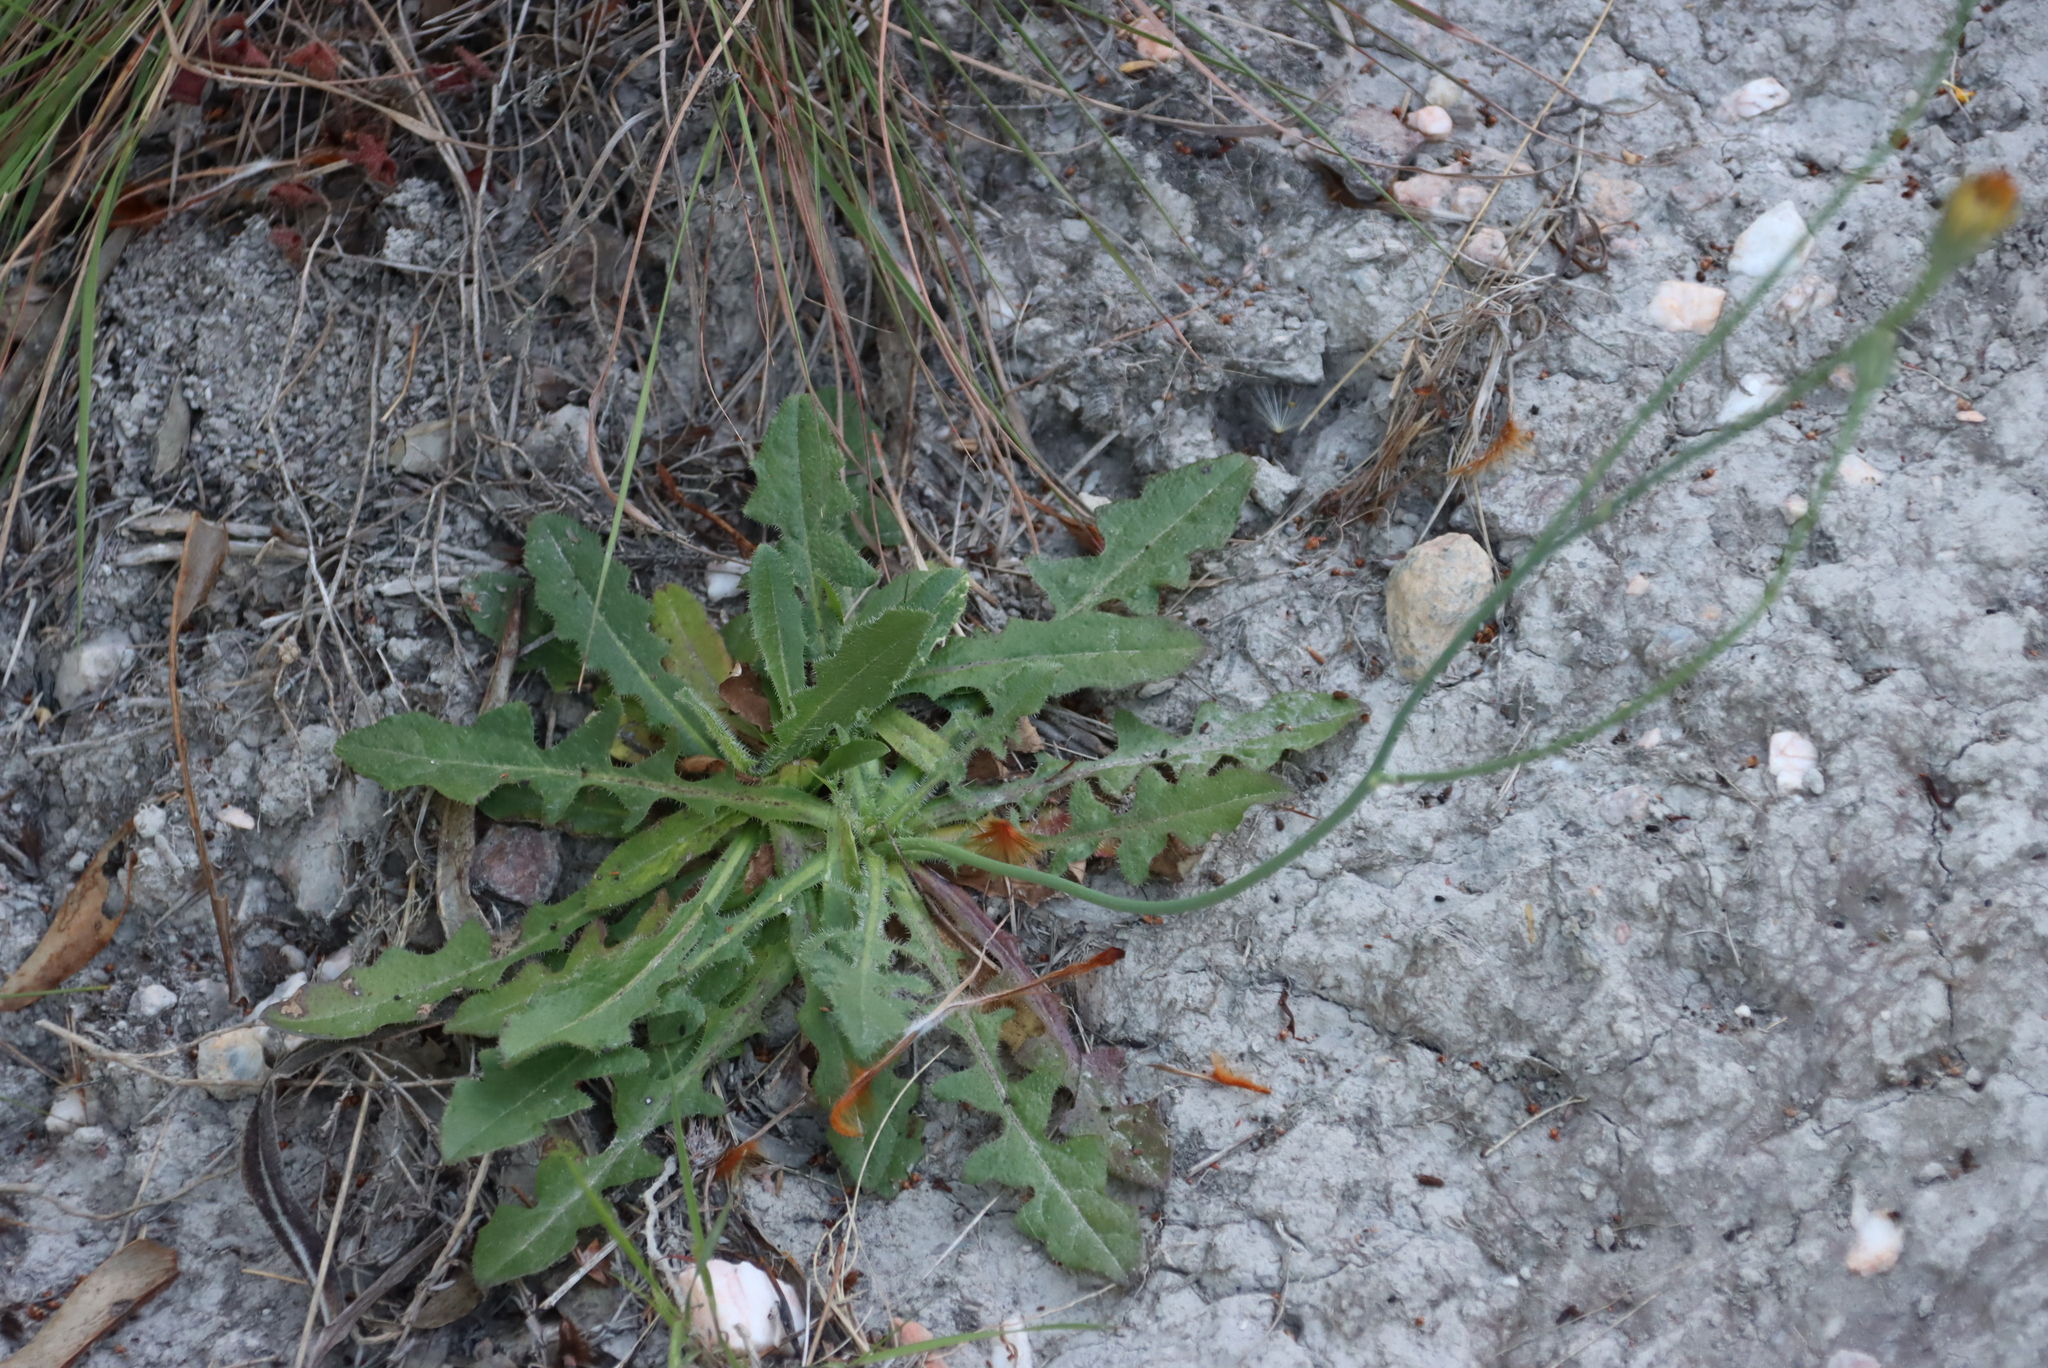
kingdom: Plantae
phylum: Tracheophyta
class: Magnoliopsida
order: Asterales
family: Asteraceae
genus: Hypochaeris
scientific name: Hypochaeris radicata
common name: Flatweed
